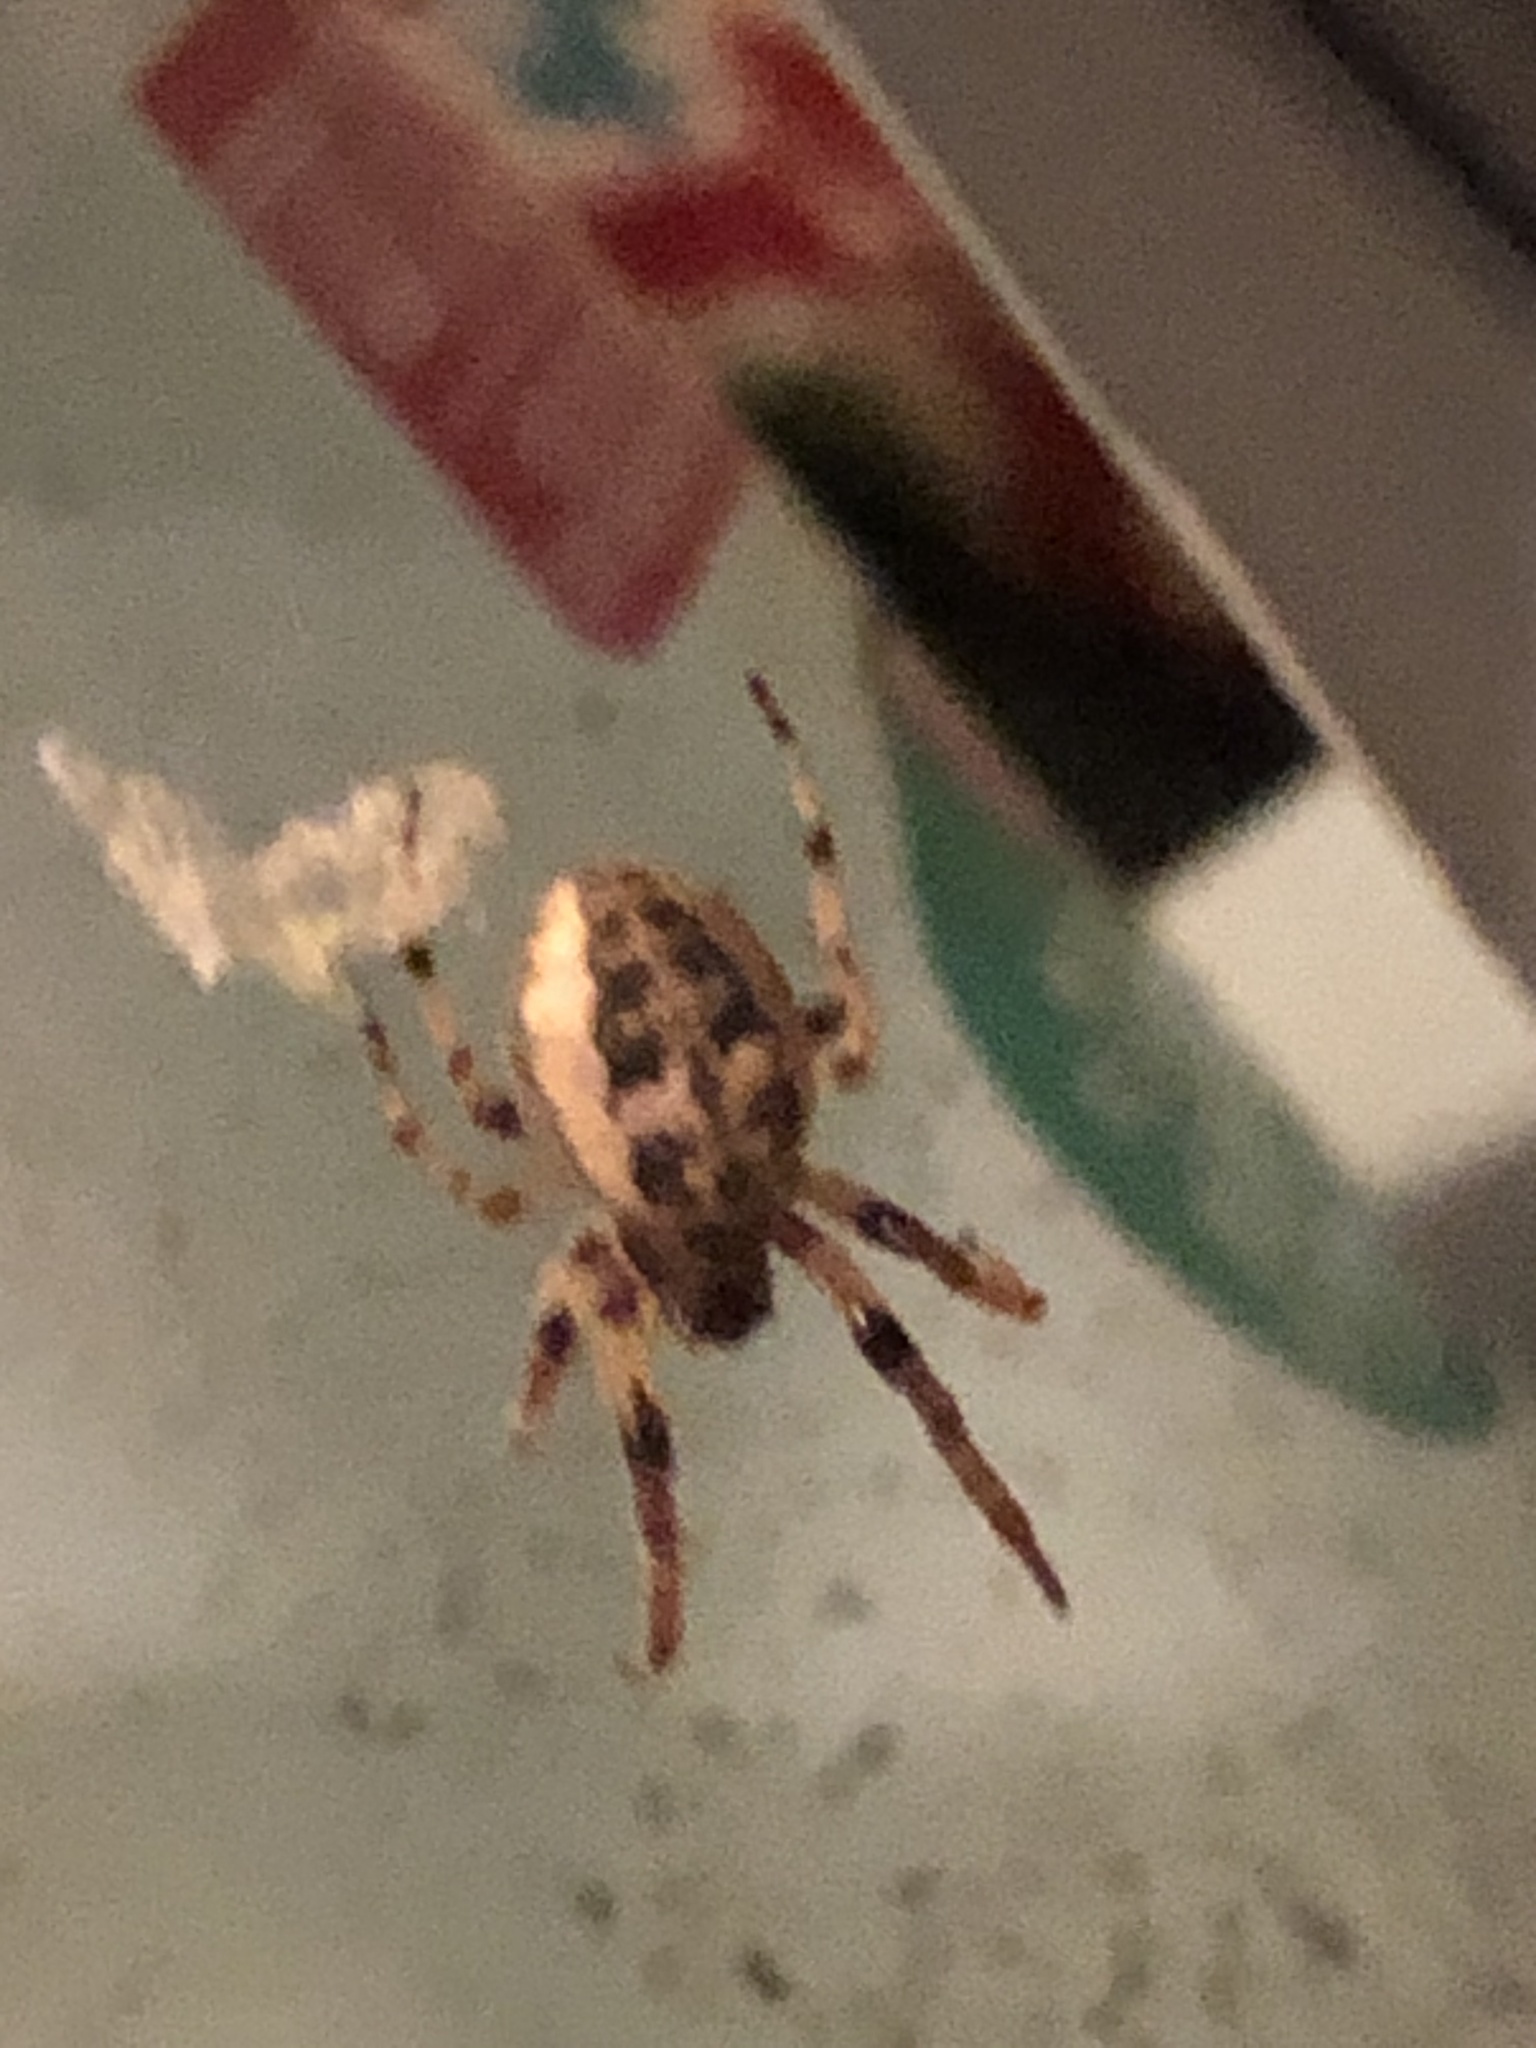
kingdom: Animalia
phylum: Arthropoda
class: Arachnida
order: Araneae
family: Araneidae
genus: Larinioides
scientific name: Larinioides cornutus
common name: Furrow orbweaver
